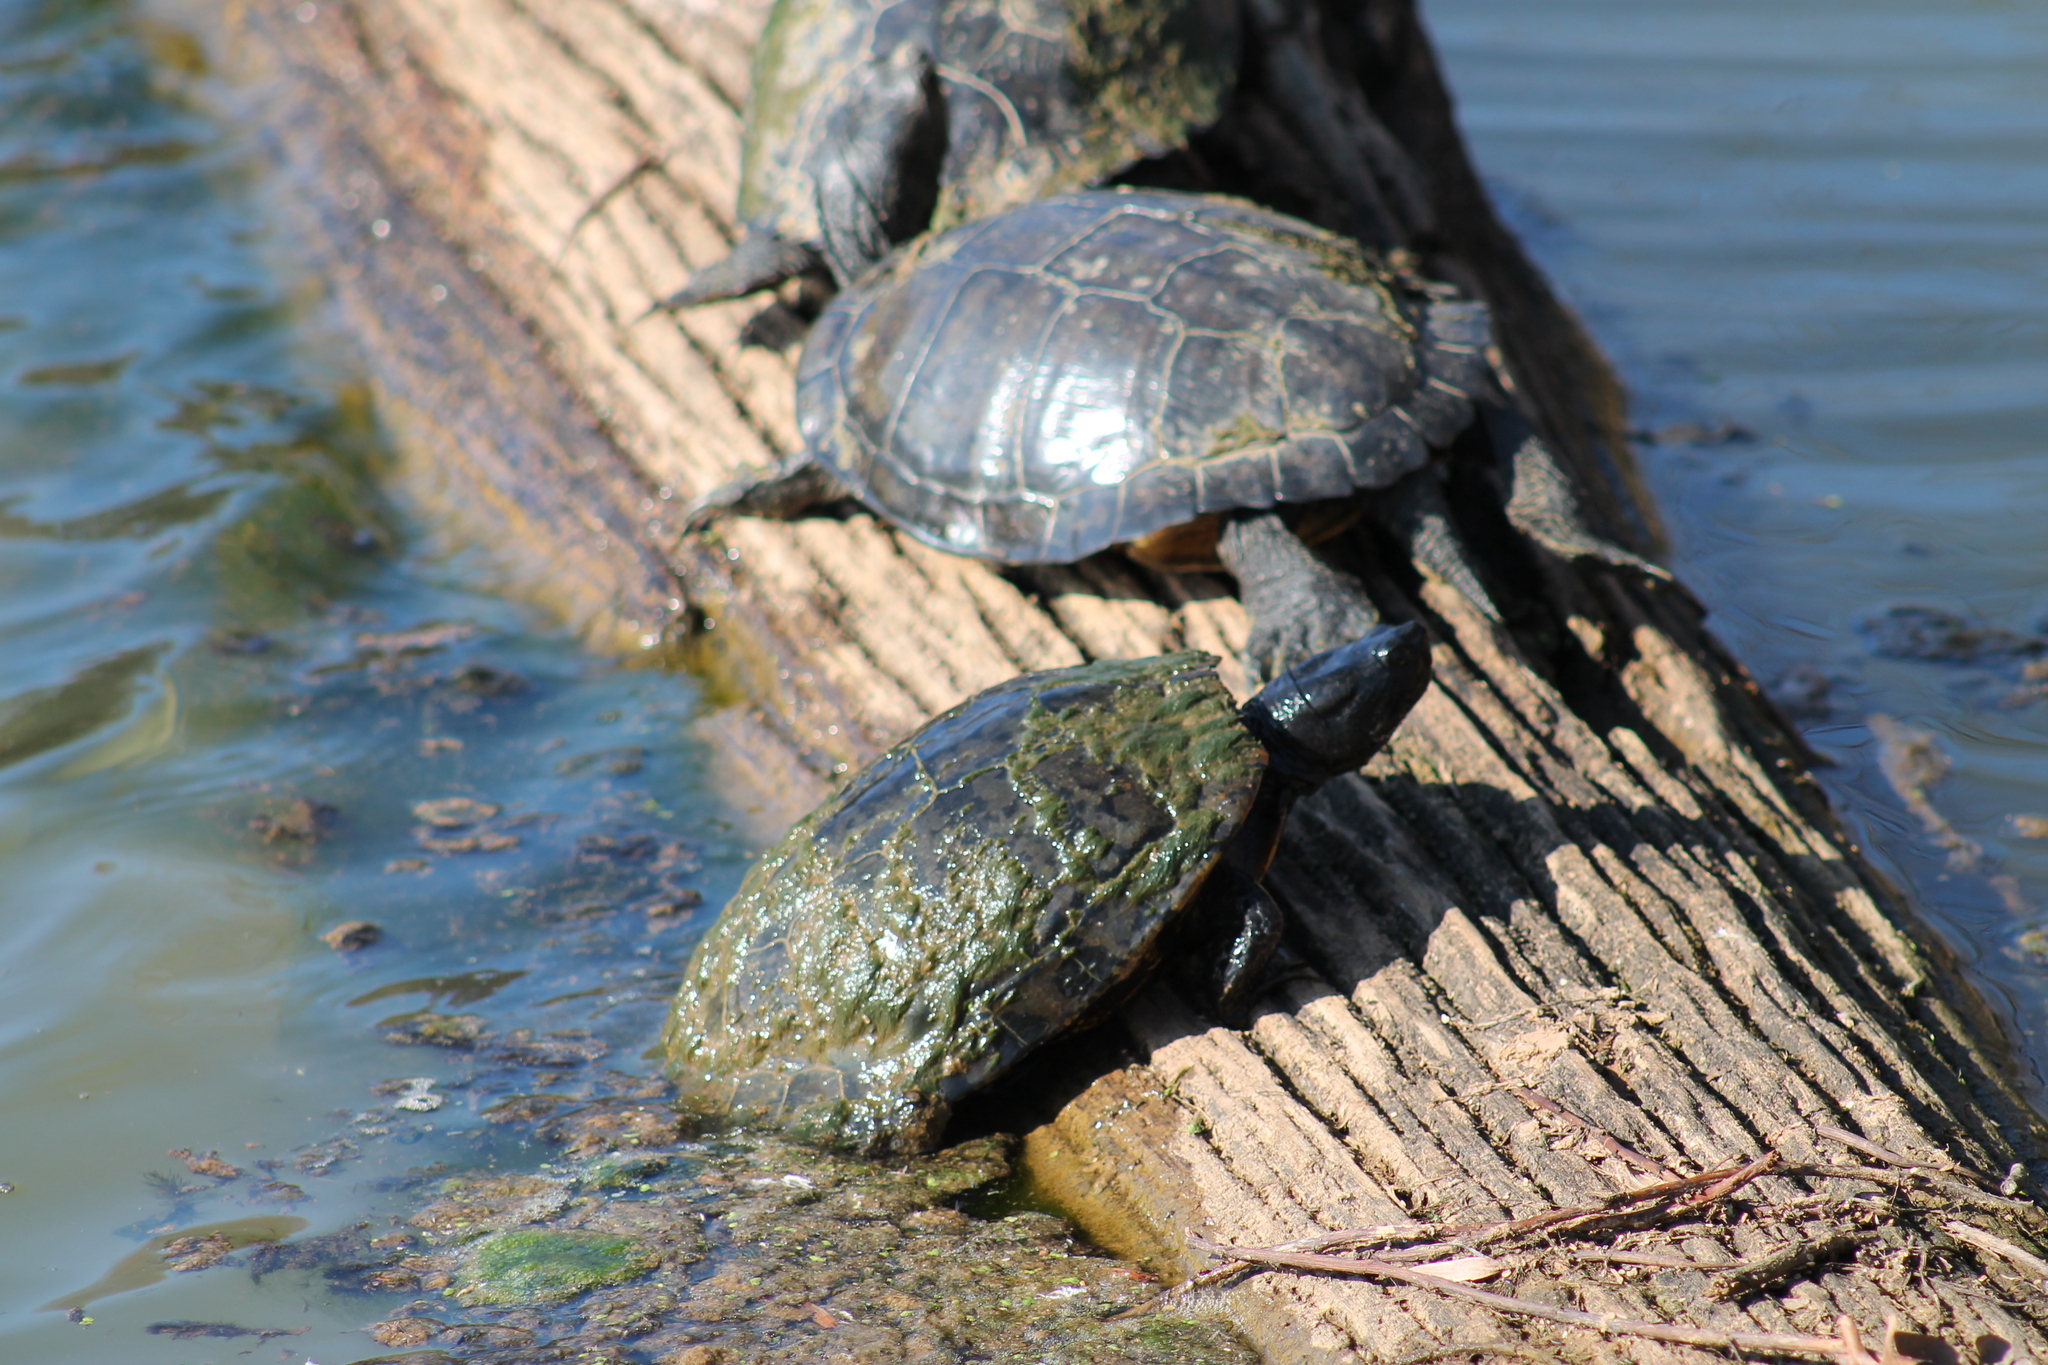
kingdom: Animalia
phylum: Chordata
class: Testudines
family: Emydidae
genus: Trachemys
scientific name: Trachemys scripta
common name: Slider
